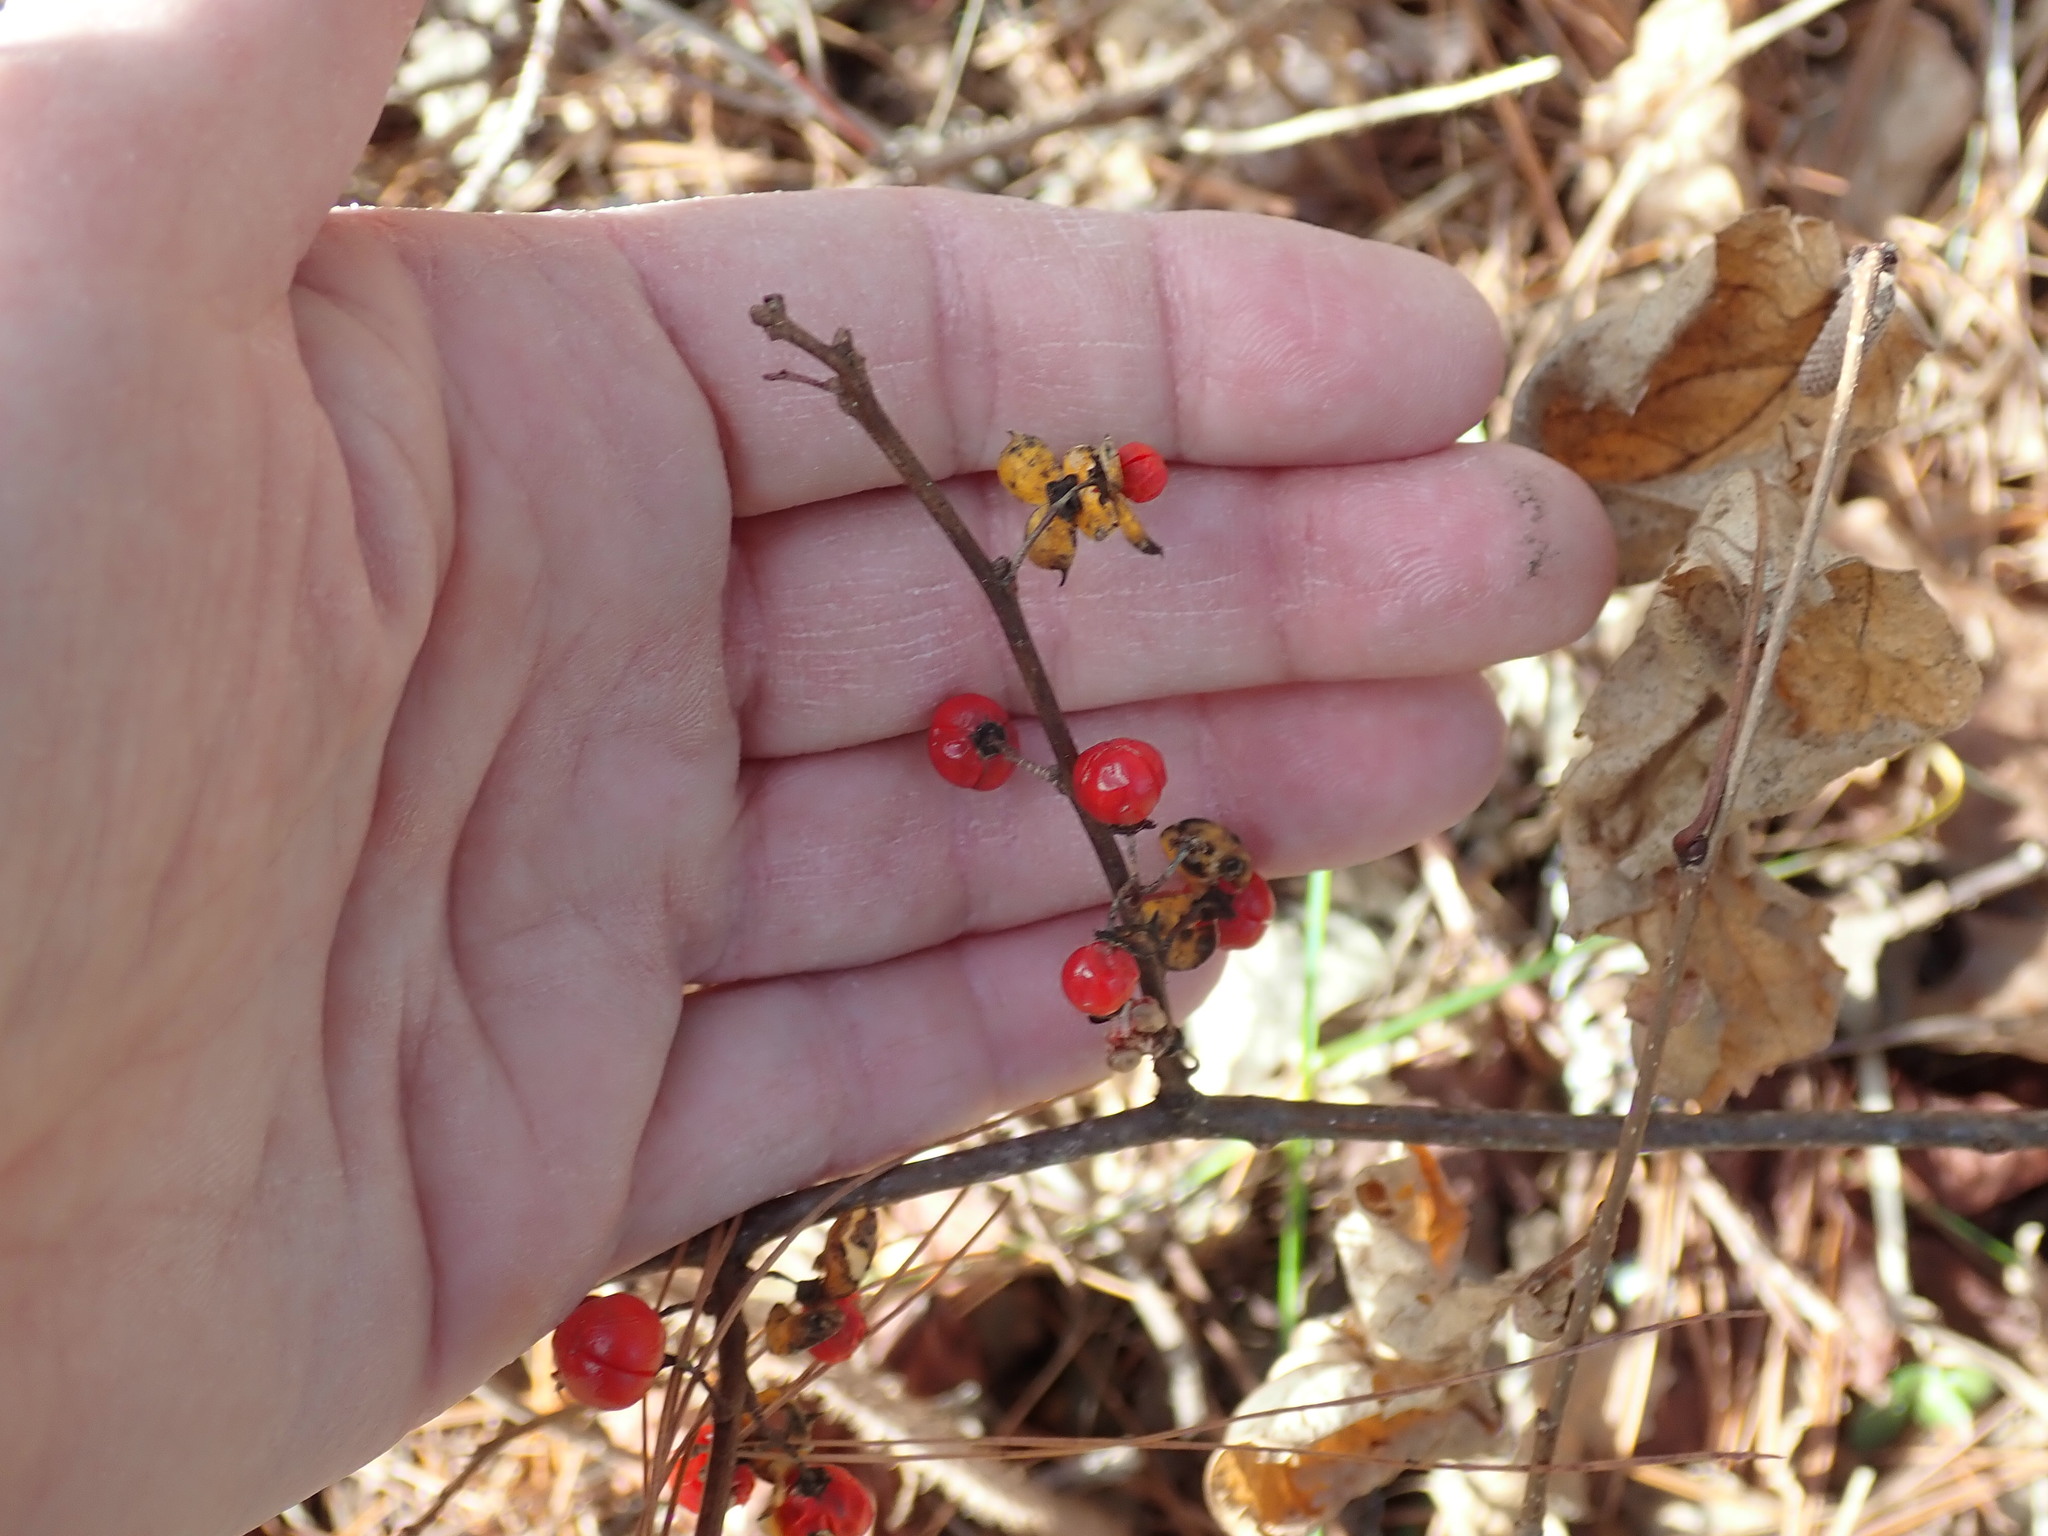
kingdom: Plantae
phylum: Tracheophyta
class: Magnoliopsida
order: Celastrales
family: Celastraceae
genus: Celastrus
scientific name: Celastrus orbiculatus
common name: Oriental bittersweet
